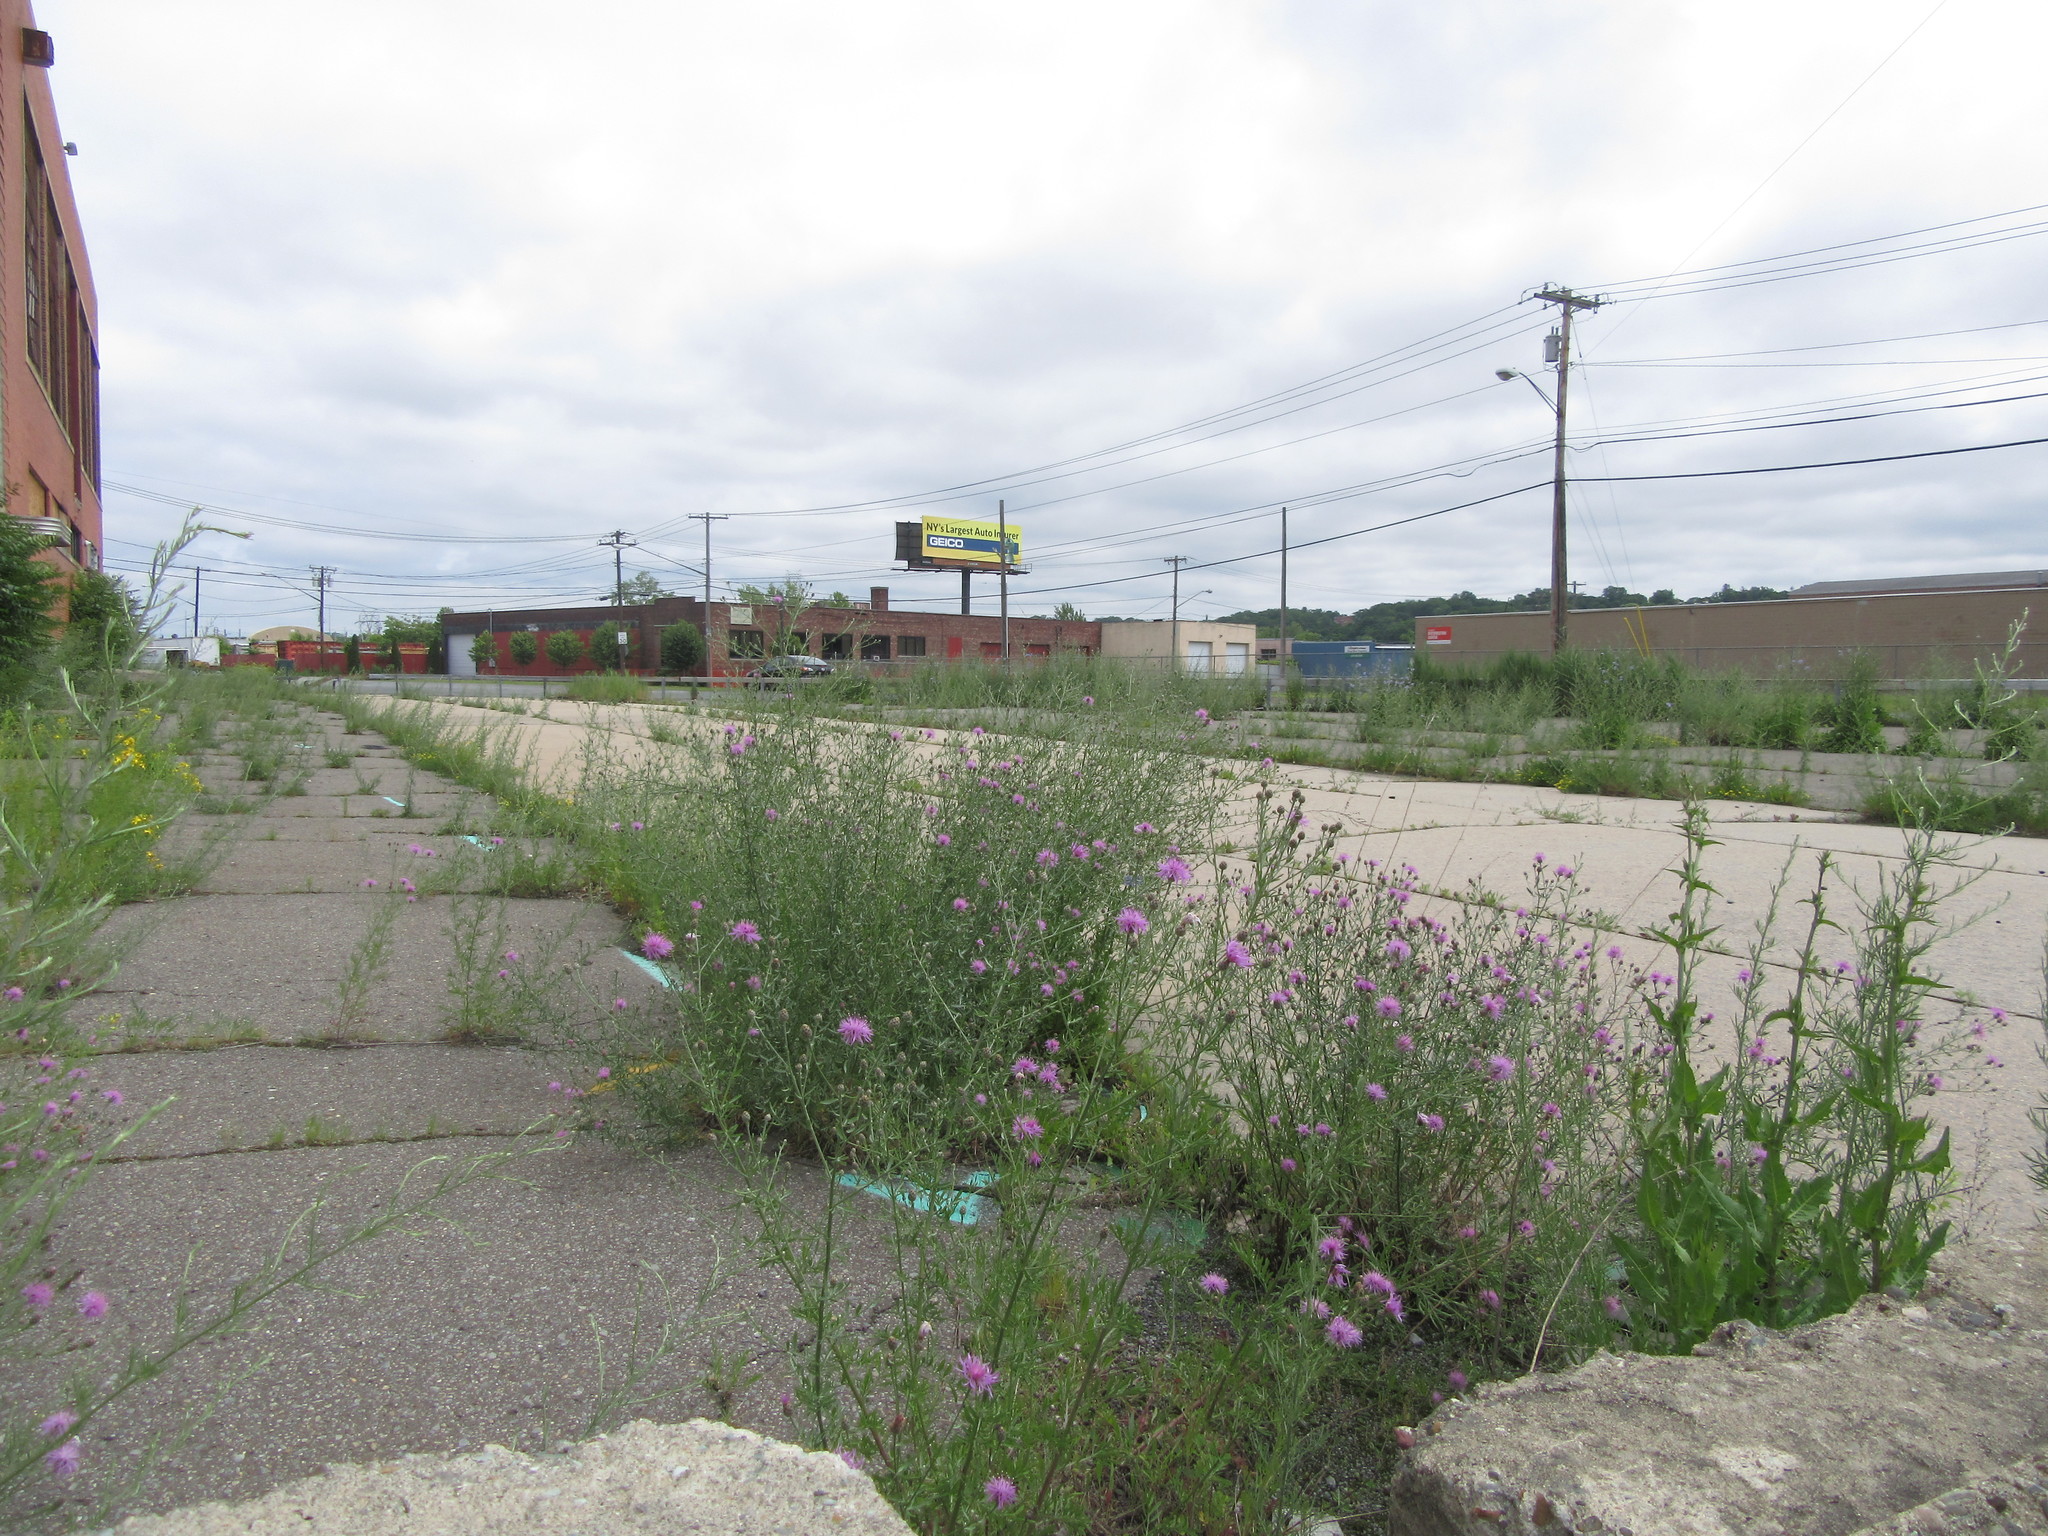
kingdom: Plantae
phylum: Tracheophyta
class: Magnoliopsida
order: Asterales
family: Asteraceae
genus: Centaurea
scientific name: Centaurea stoebe
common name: Spotted knapweed
